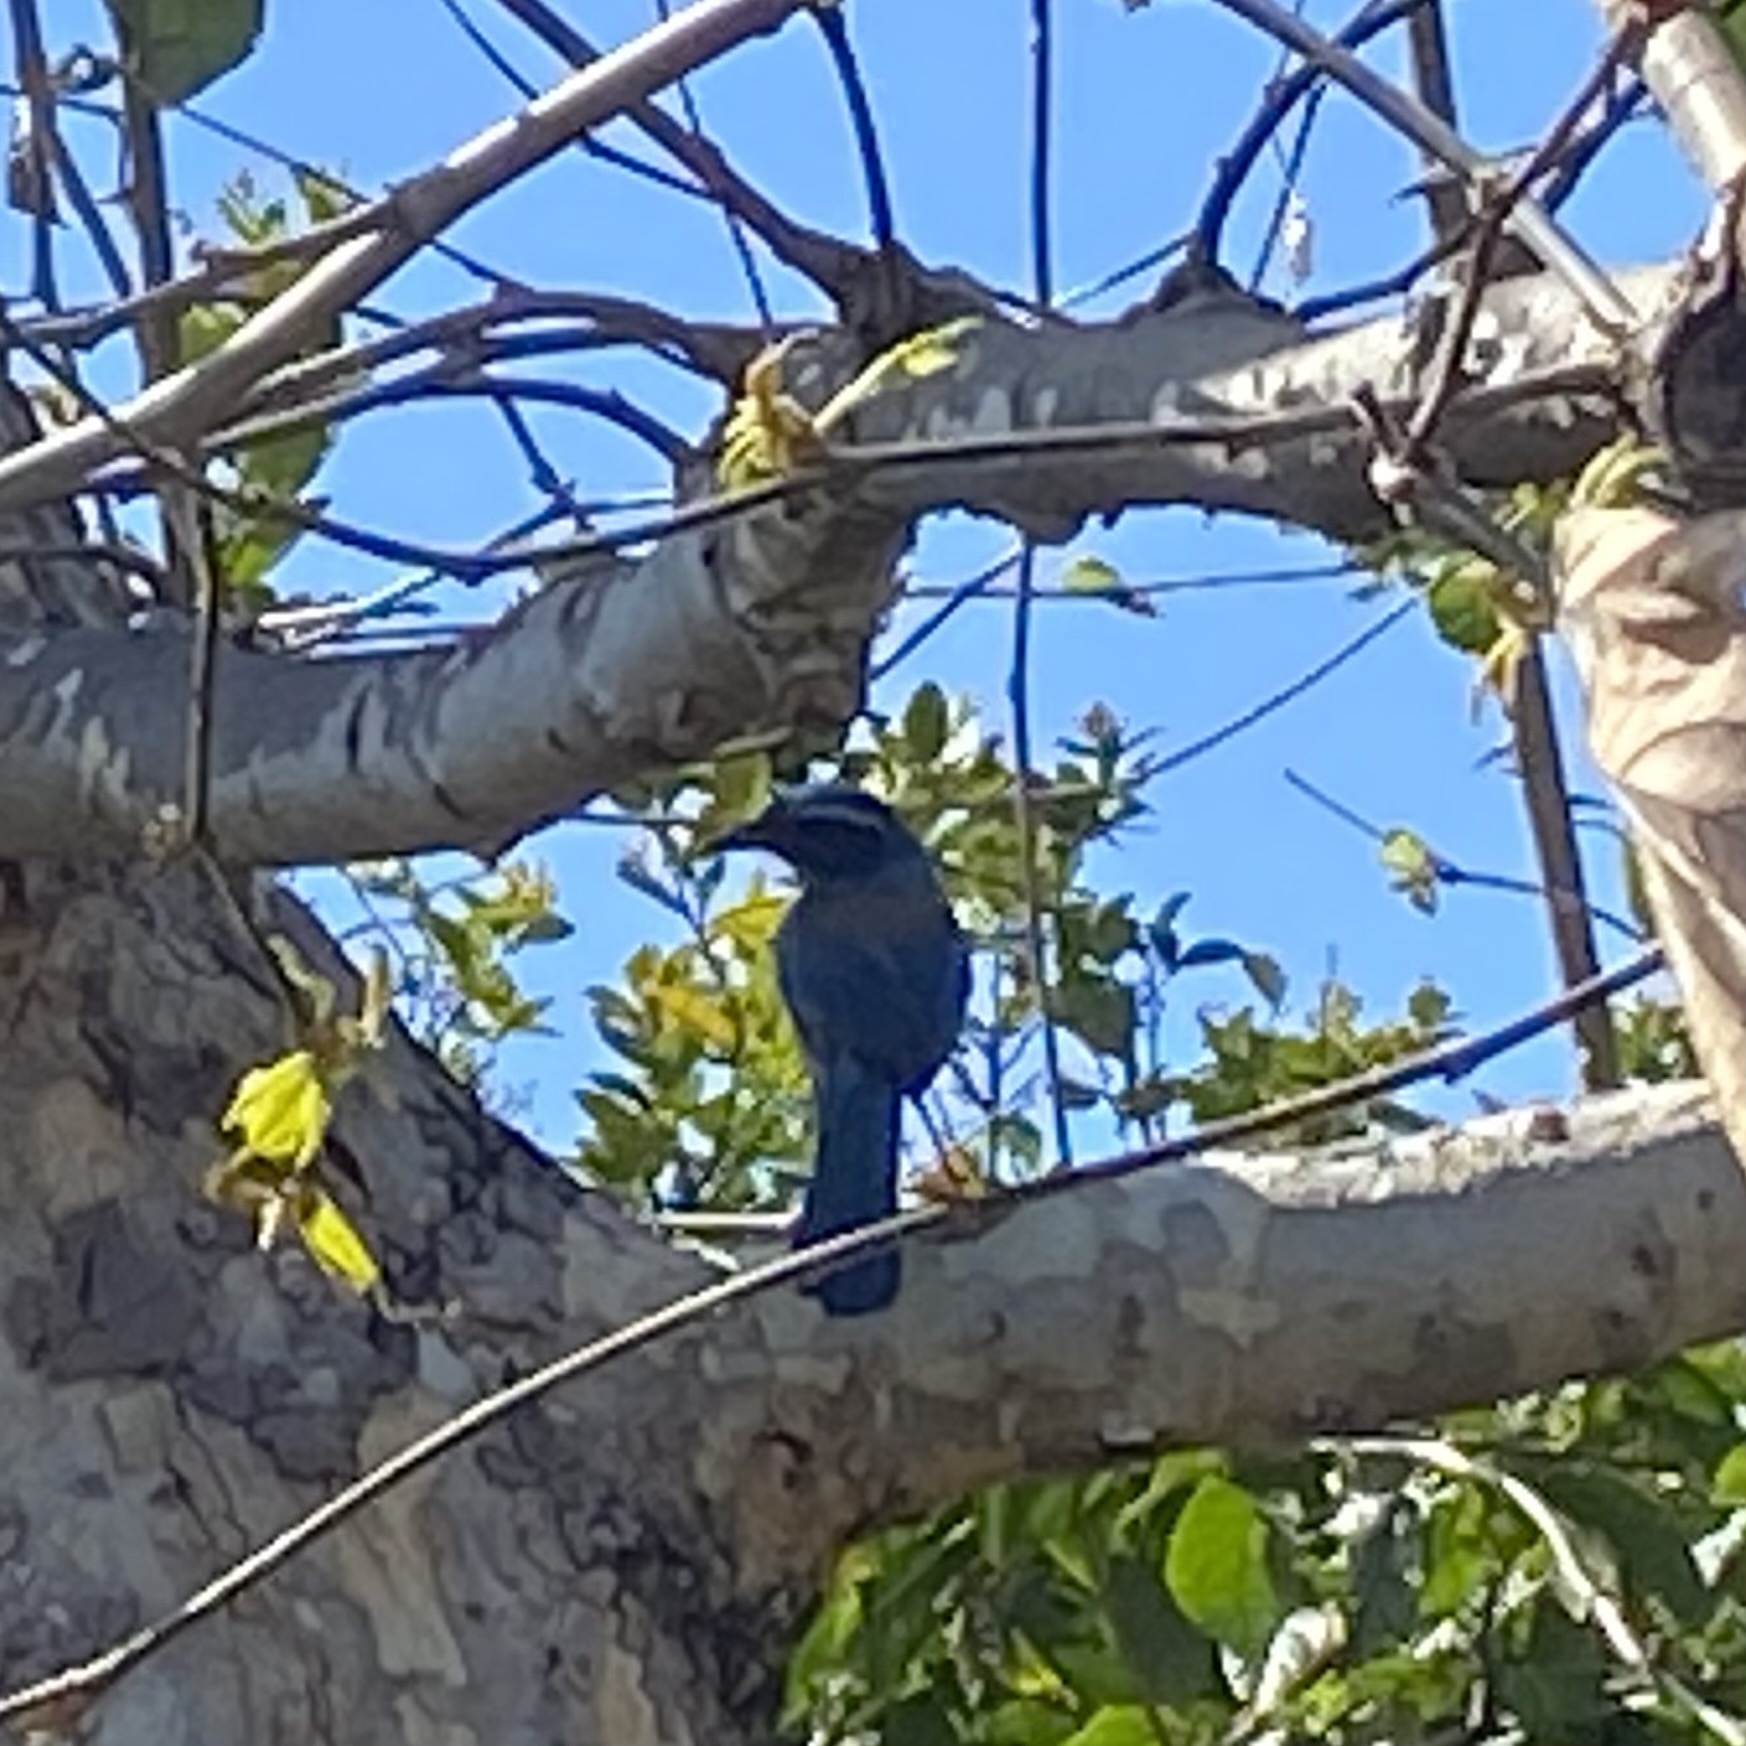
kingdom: Animalia
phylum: Chordata
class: Aves
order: Passeriformes
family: Corvidae
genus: Aphelocoma
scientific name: Aphelocoma californica
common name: California scrub-jay
